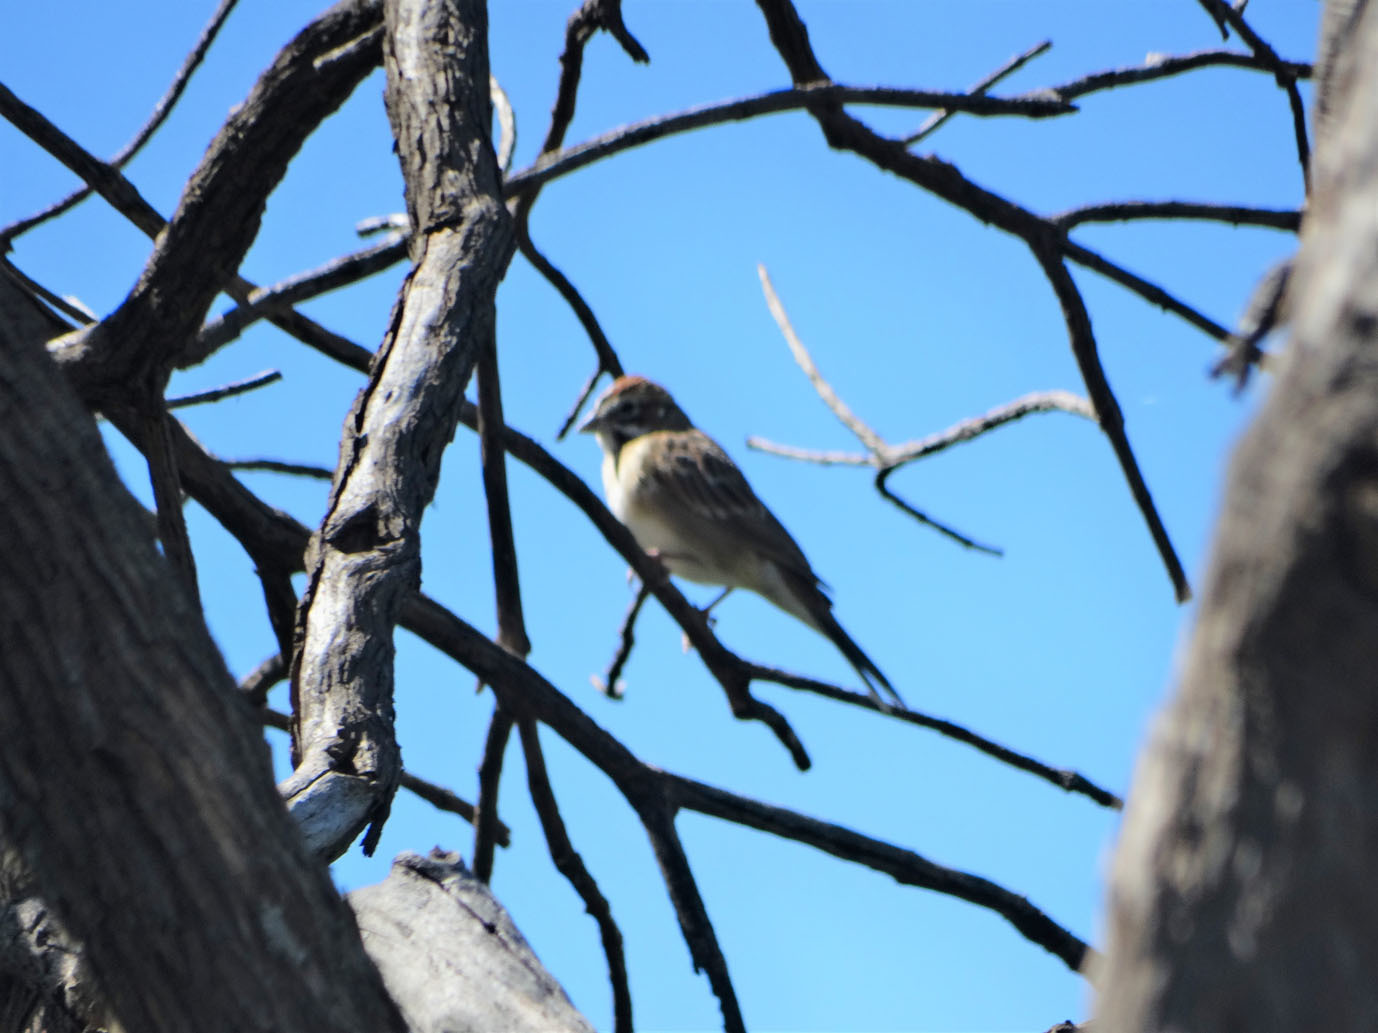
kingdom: Animalia
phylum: Chordata
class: Aves
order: Passeriformes
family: Passerellidae
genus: Chondestes
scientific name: Chondestes grammacus
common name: Lark sparrow
